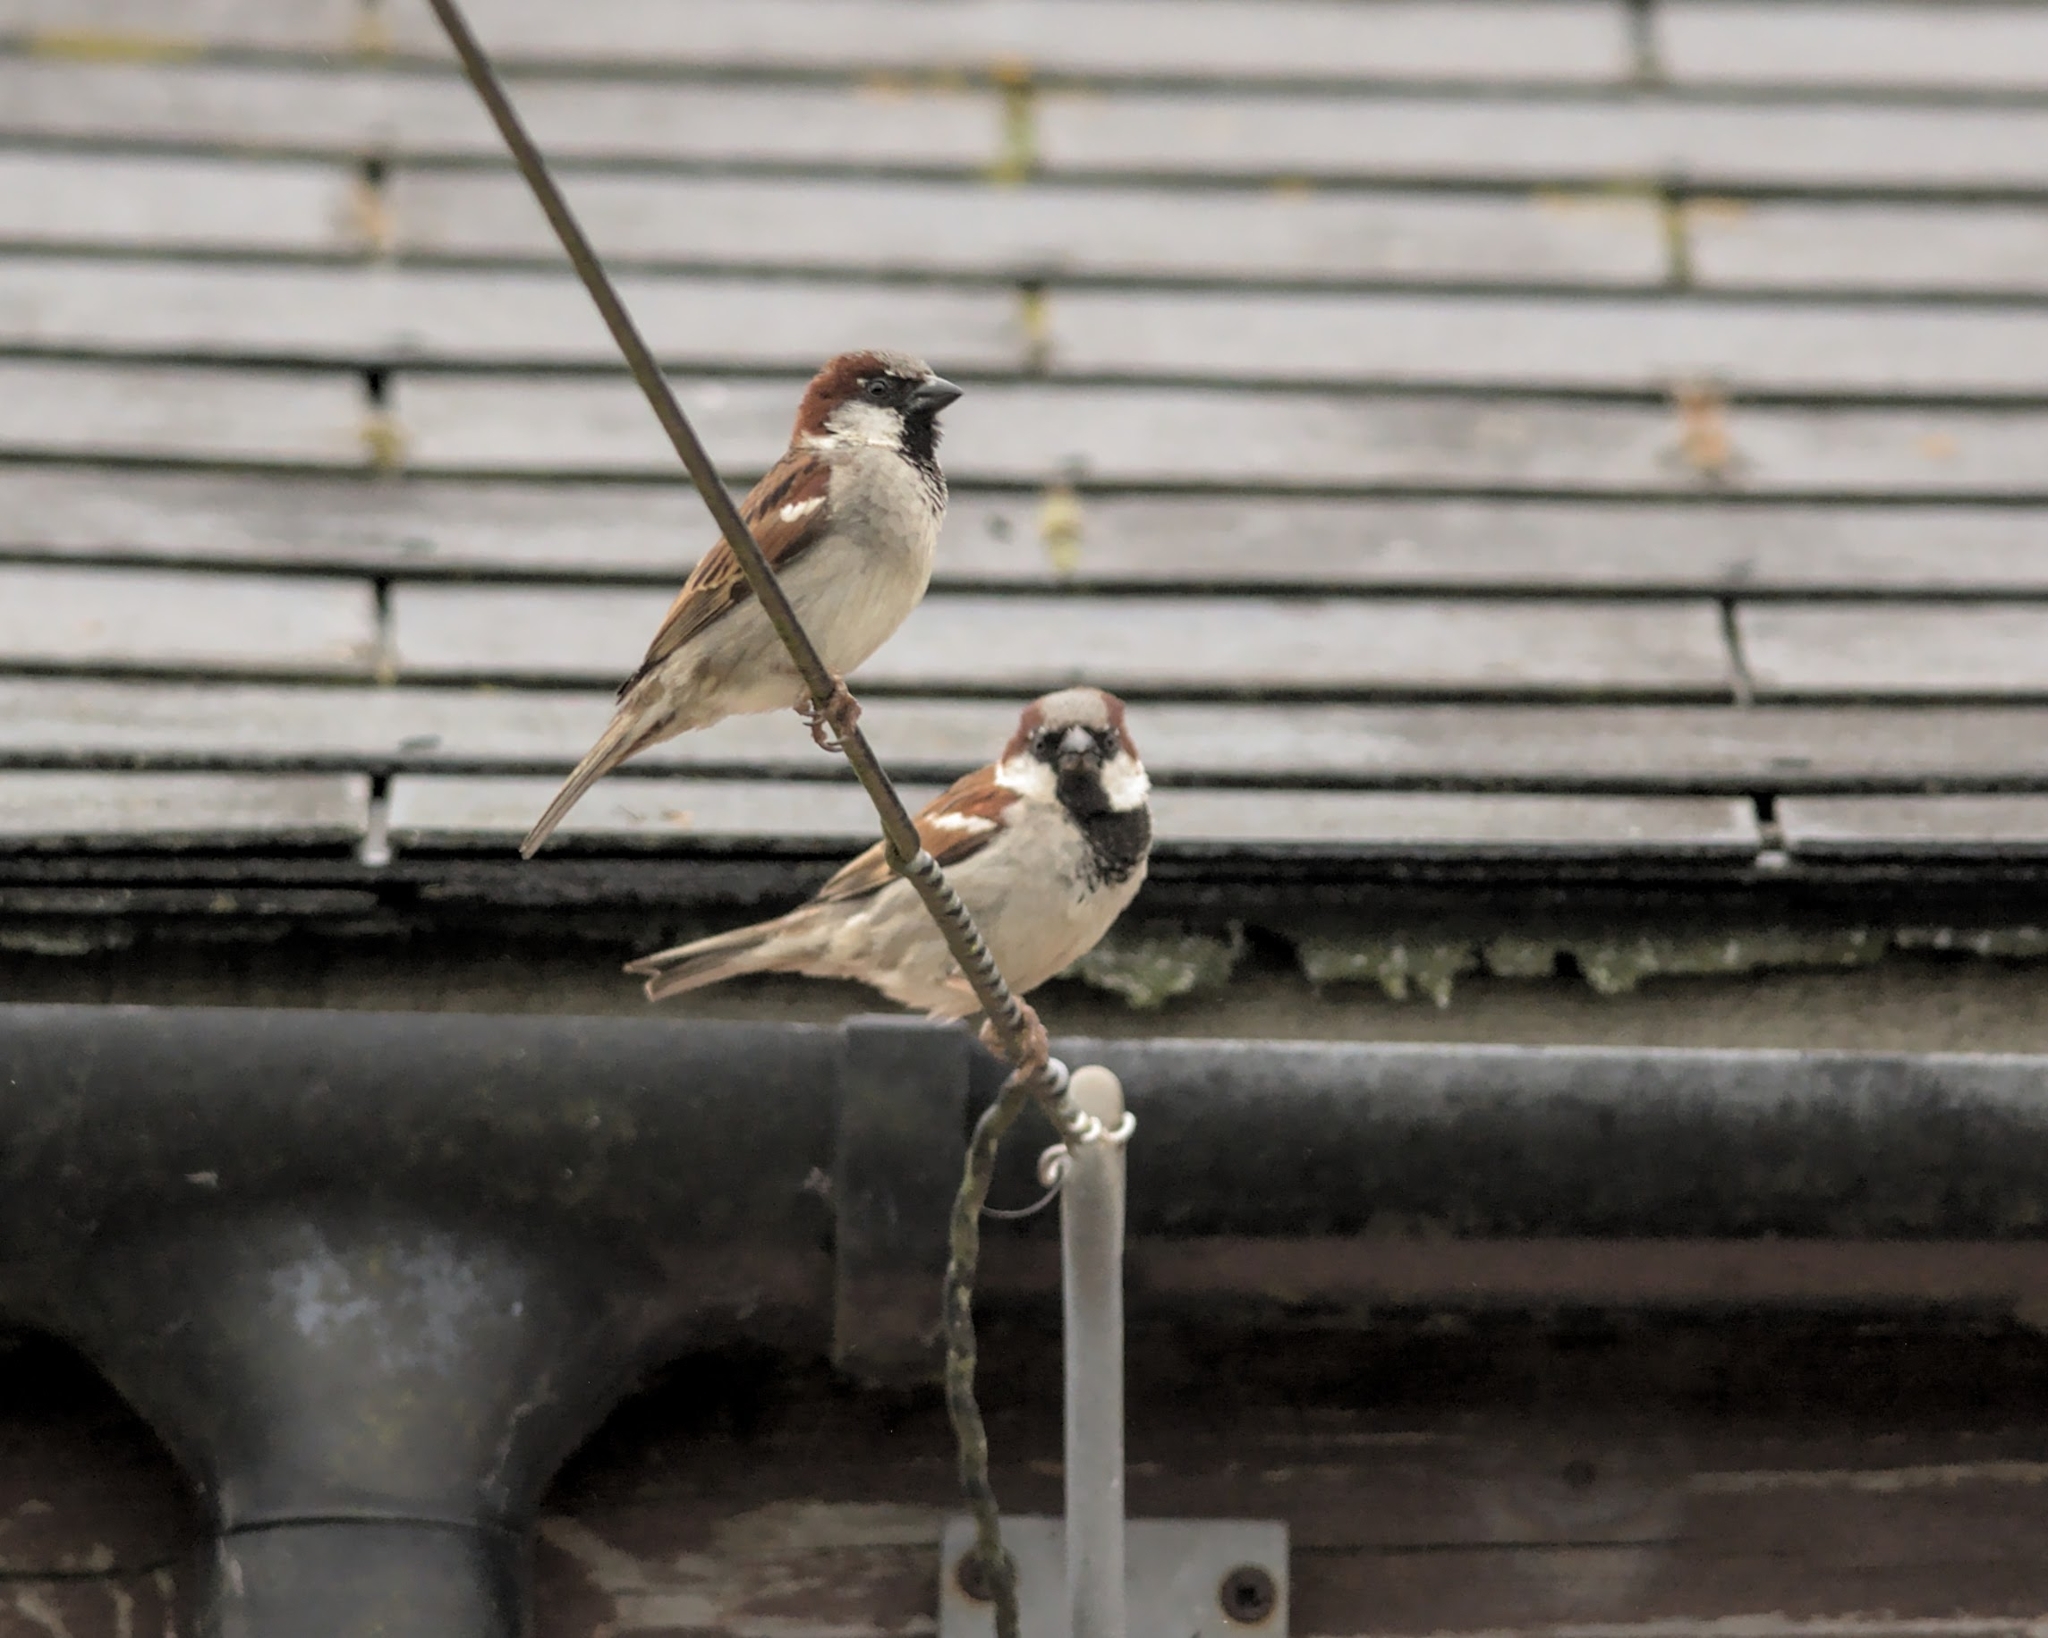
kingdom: Animalia
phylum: Chordata
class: Aves
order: Passeriformes
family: Passeridae
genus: Passer
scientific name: Passer domesticus
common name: House sparrow
